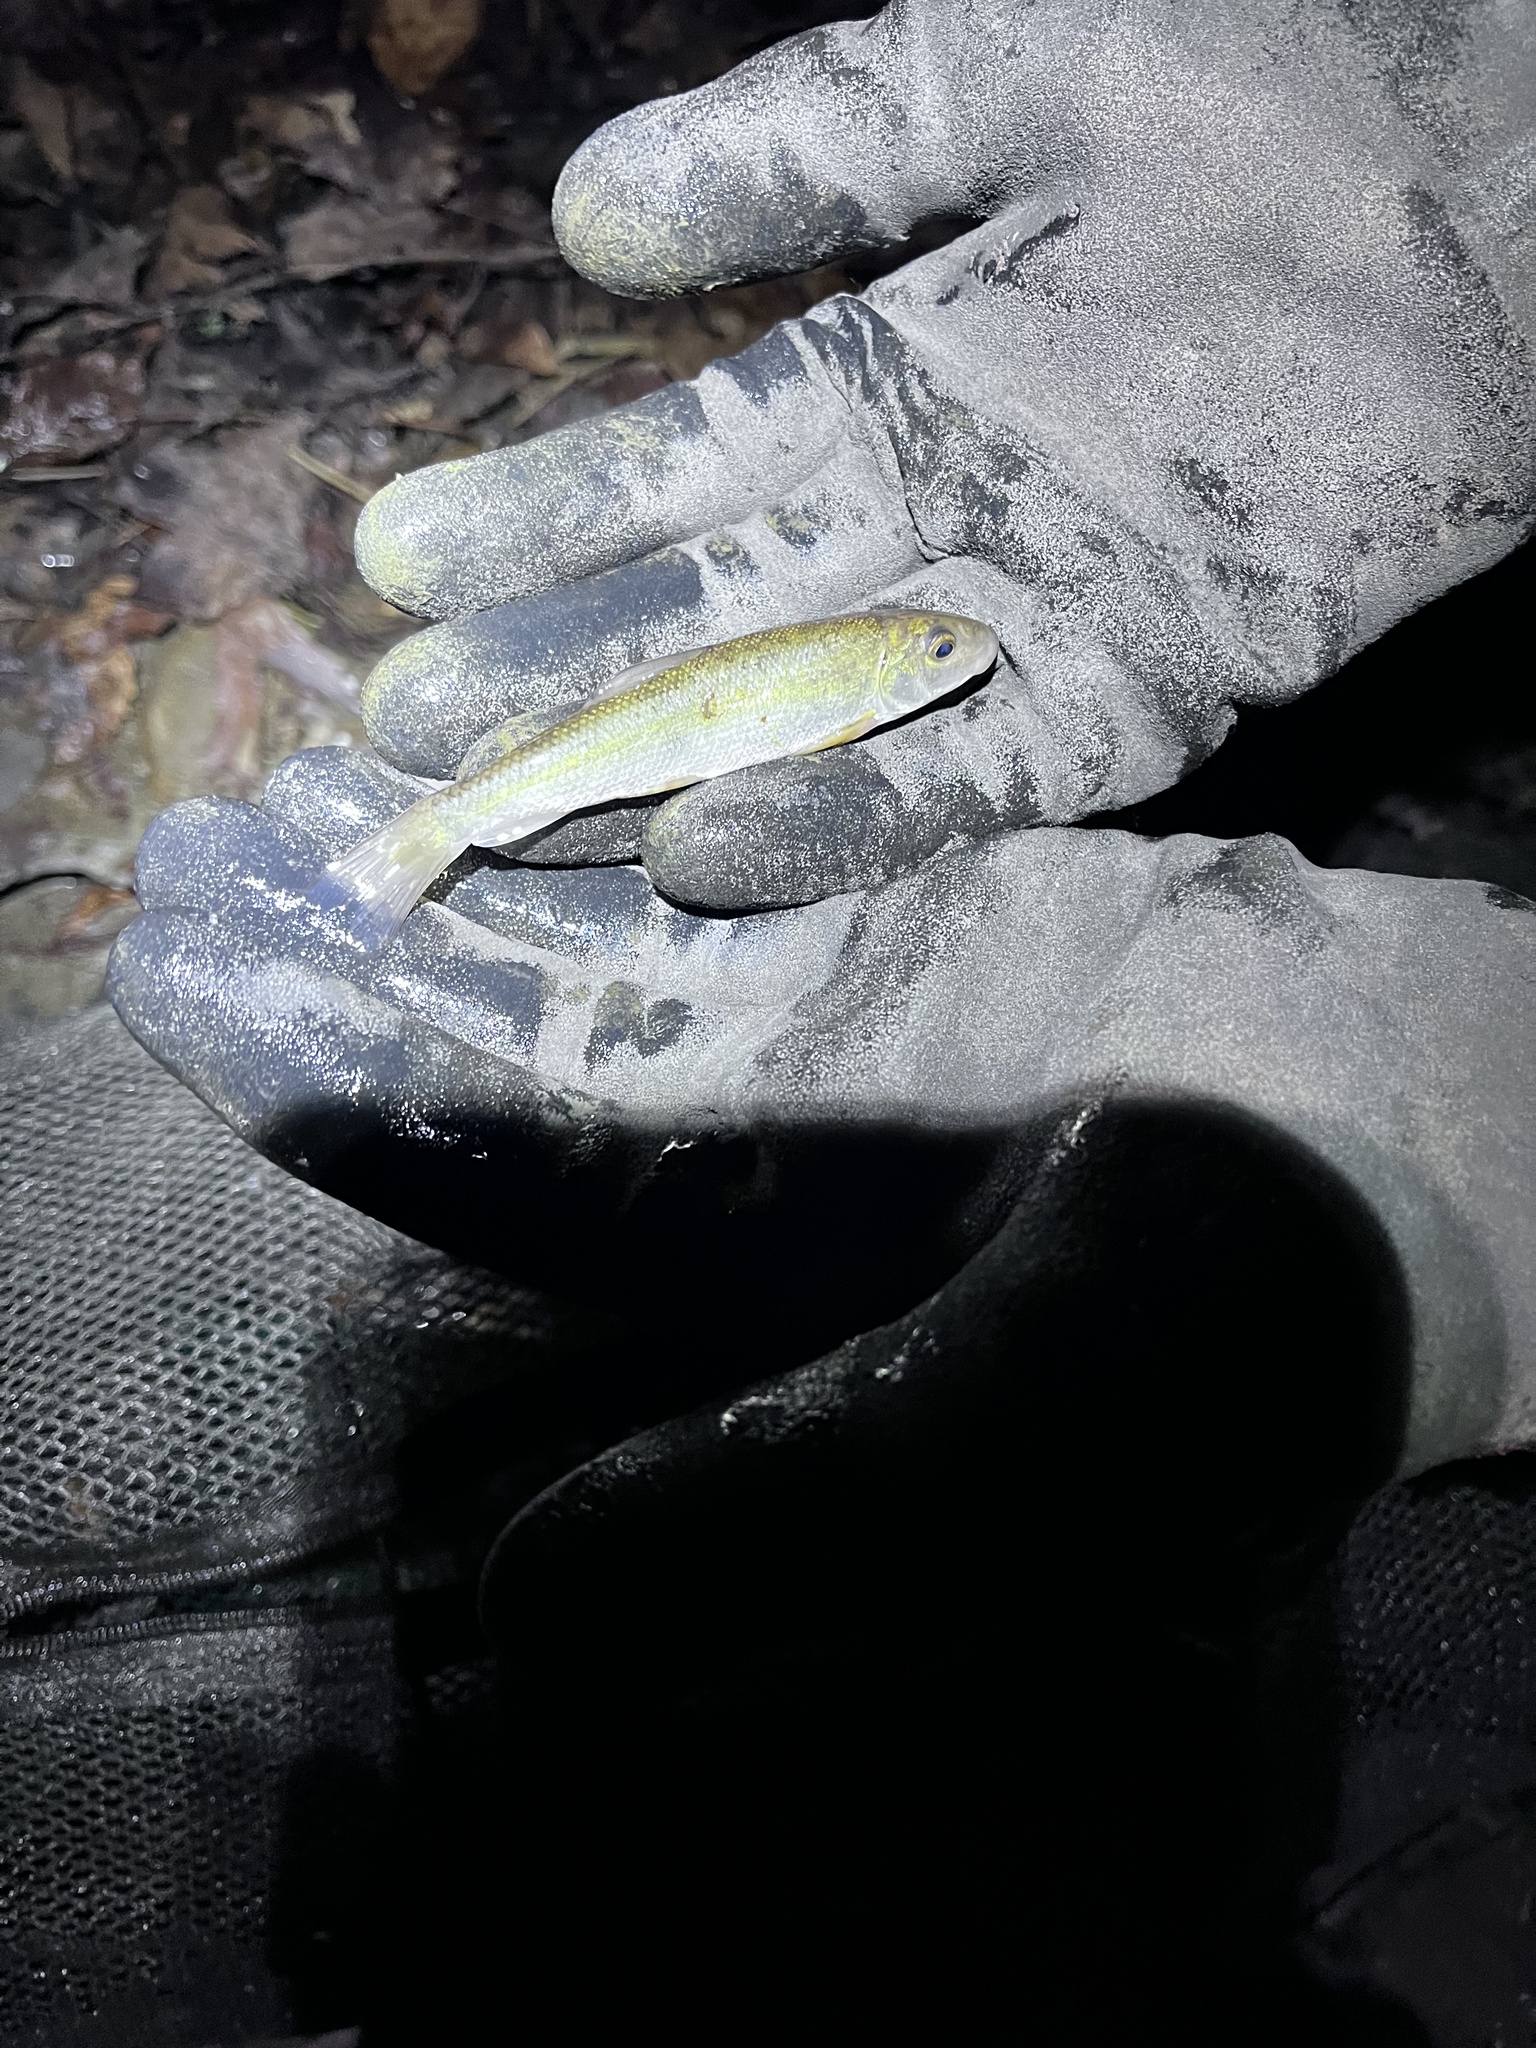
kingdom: Animalia
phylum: Chordata
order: Cypriniformes
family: Catostomidae
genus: Catostomus
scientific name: Catostomus commersonii
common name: White sucker
